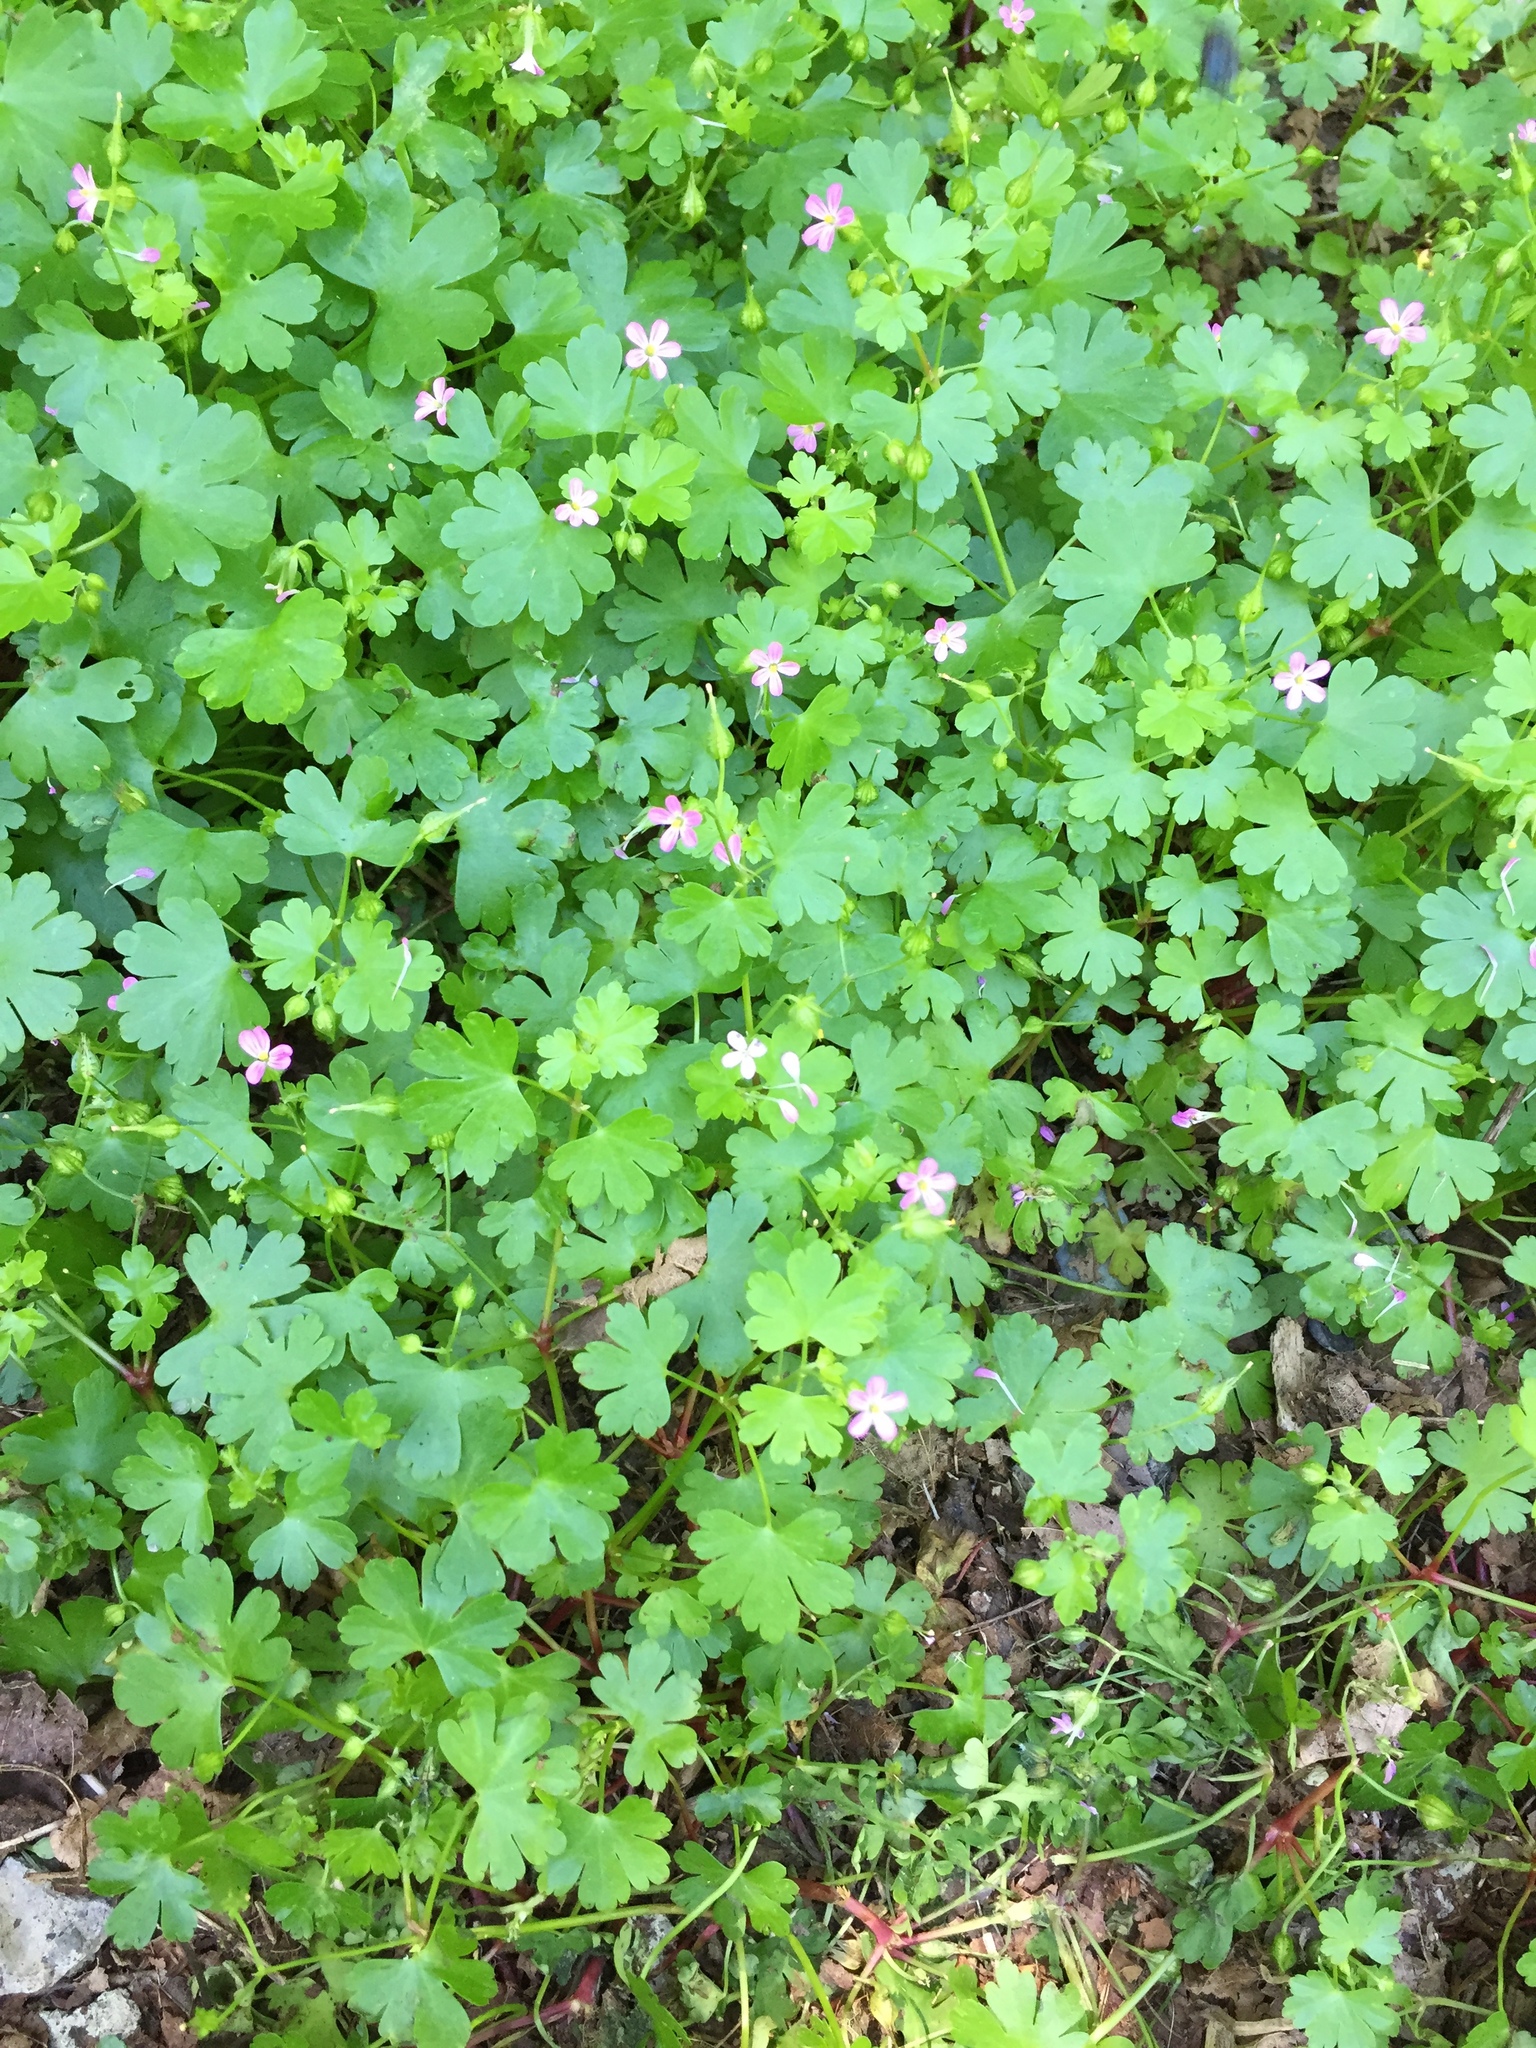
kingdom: Plantae
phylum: Tracheophyta
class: Magnoliopsida
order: Geraniales
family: Geraniaceae
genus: Geranium
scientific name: Geranium lucidum
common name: Shining crane's-bill
